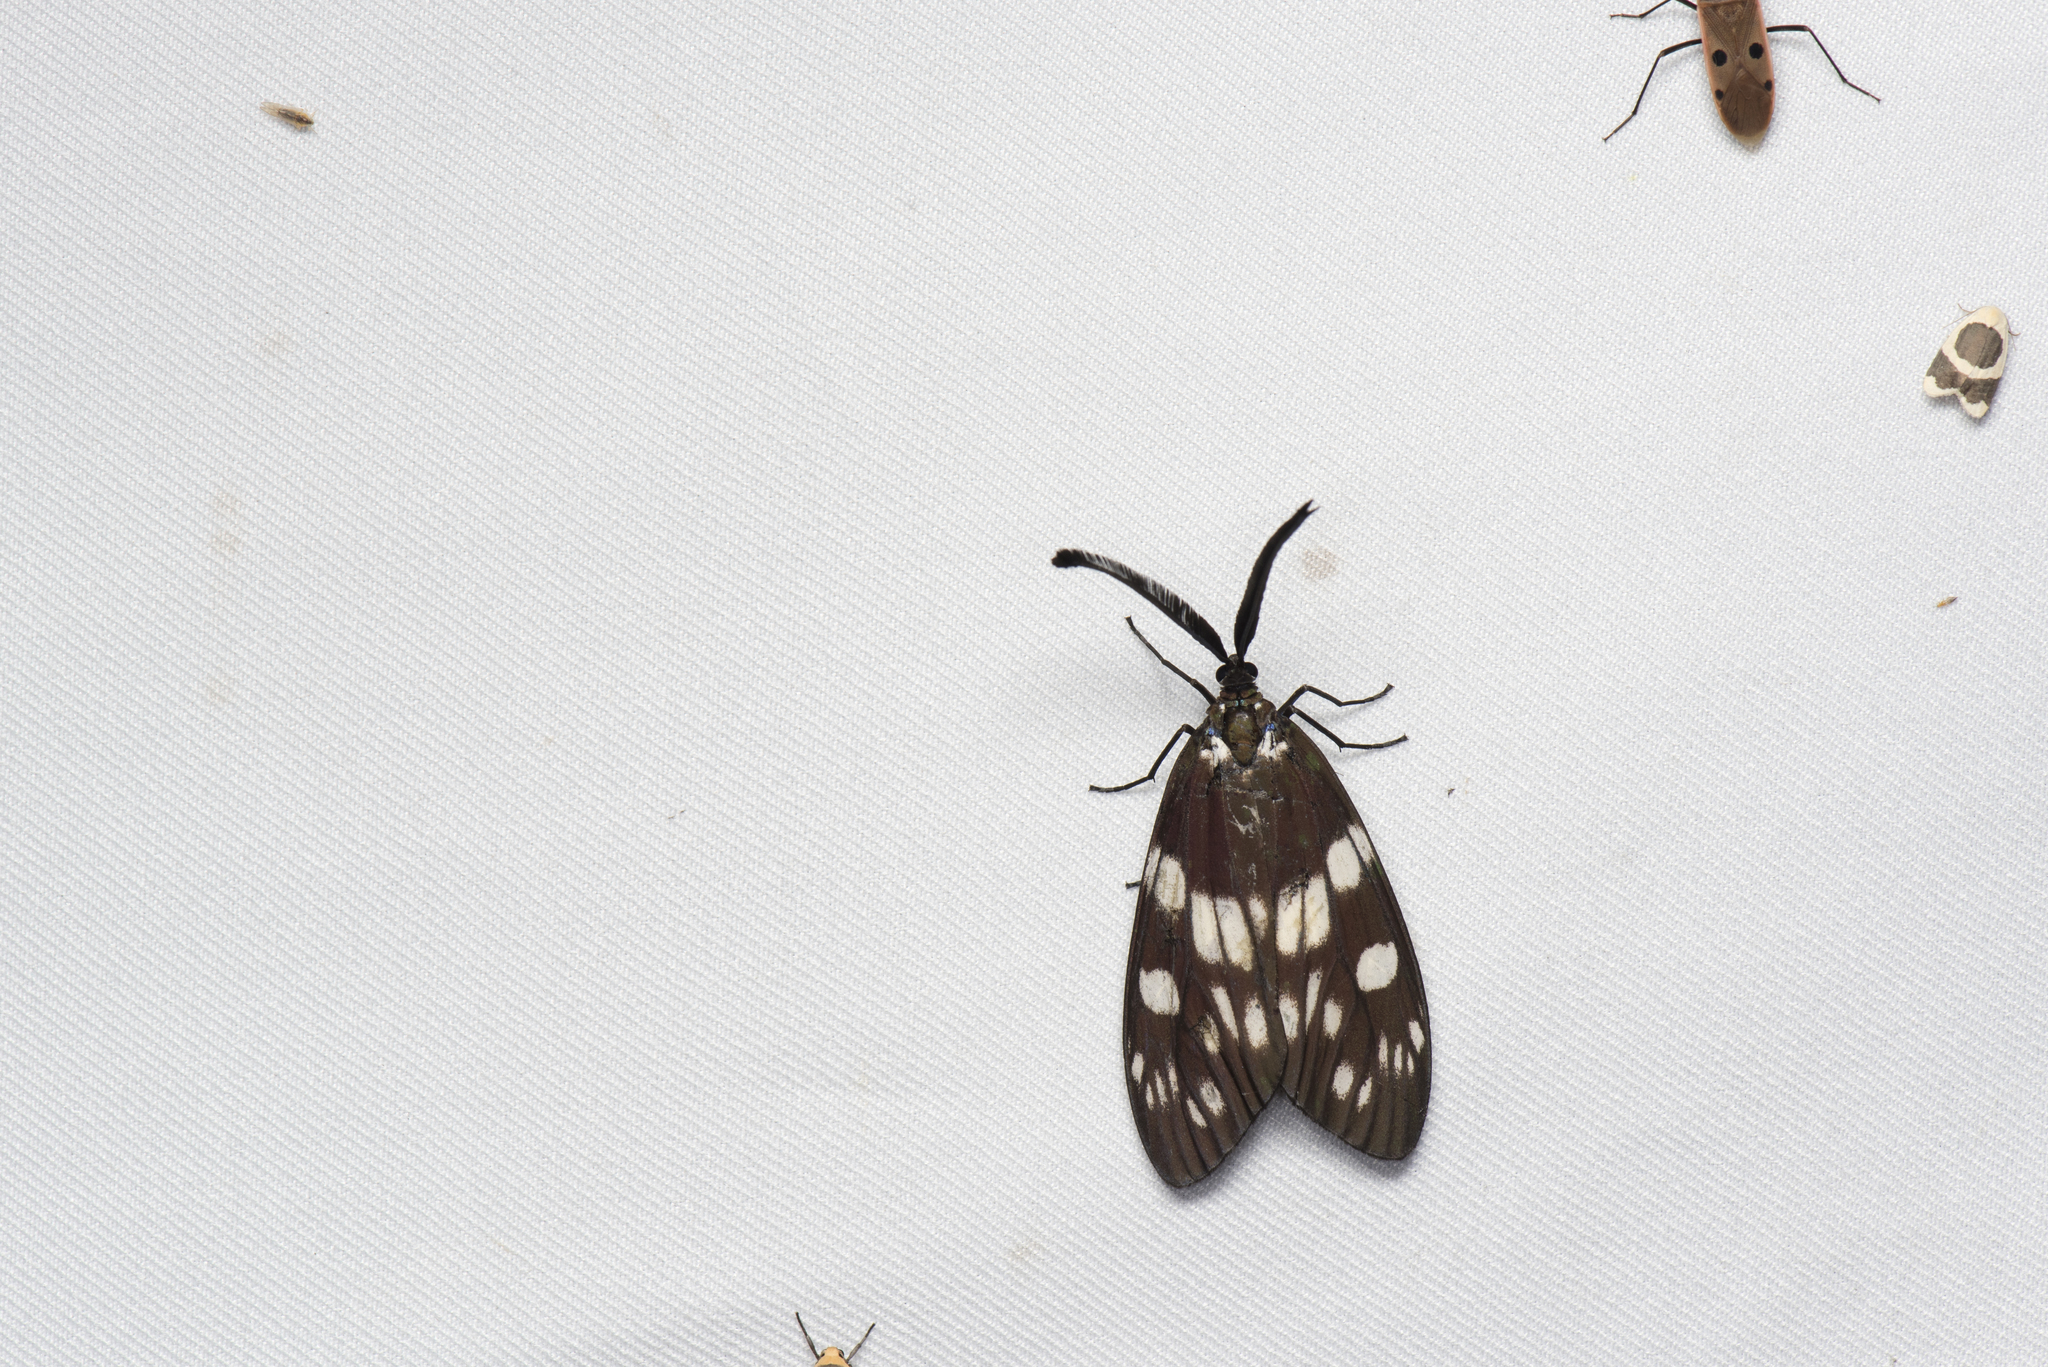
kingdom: Animalia
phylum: Arthropoda
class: Insecta
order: Lepidoptera
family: Zygaenidae
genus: Eterusia
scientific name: Eterusia aedea
